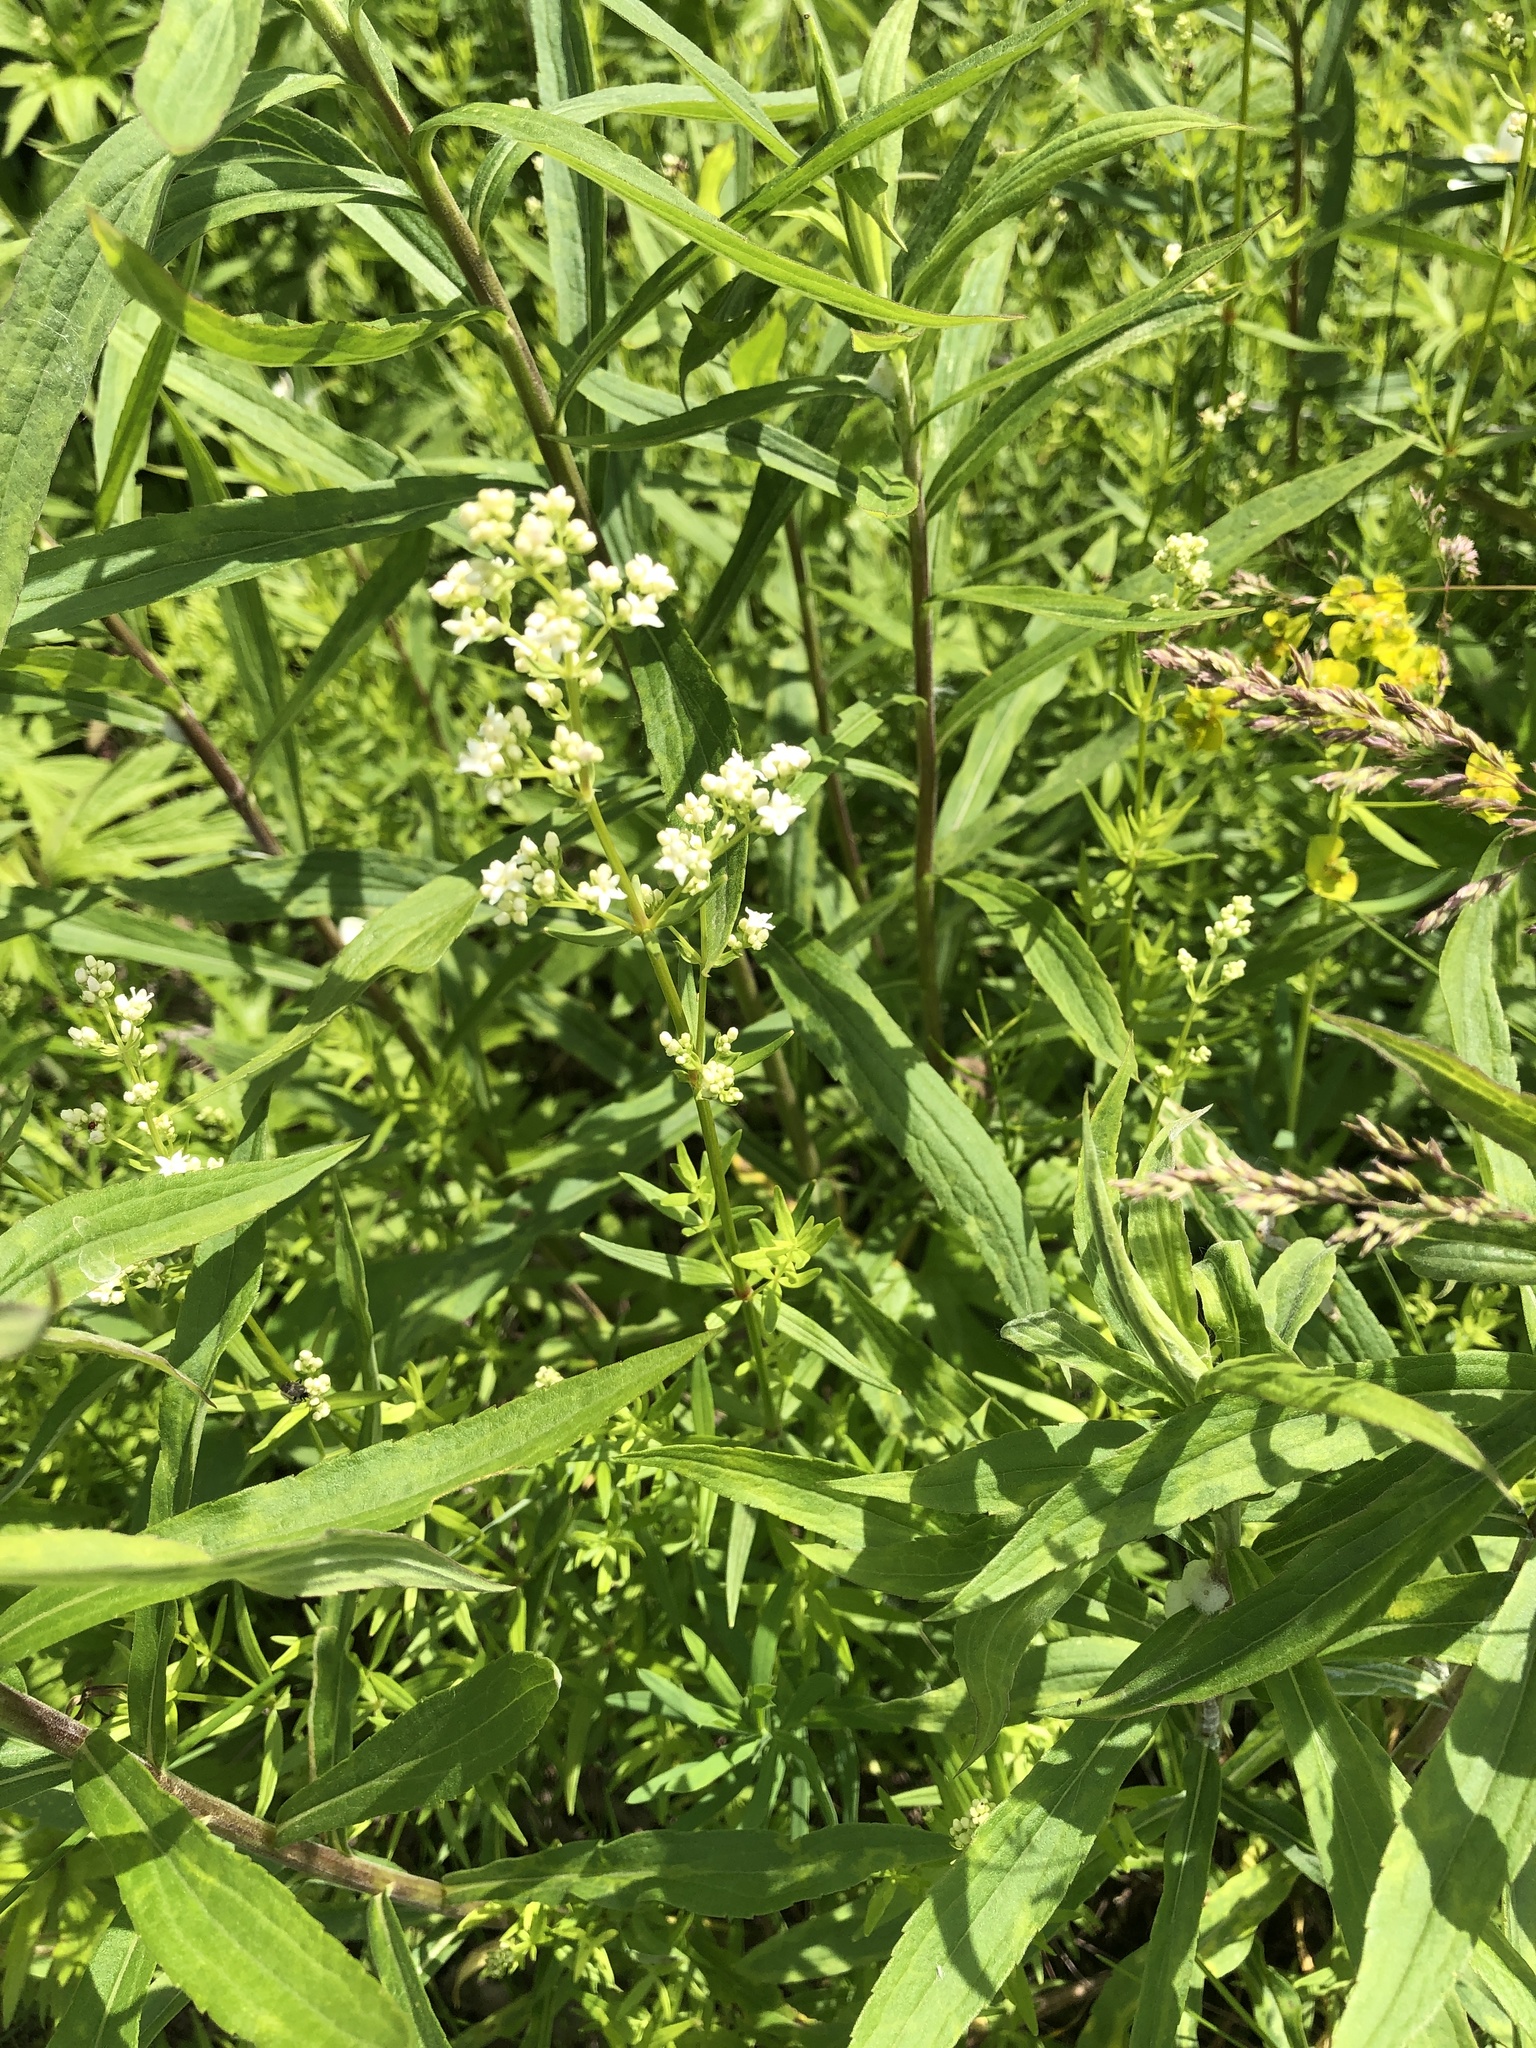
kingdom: Plantae
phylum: Tracheophyta
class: Magnoliopsida
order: Gentianales
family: Rubiaceae
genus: Galium
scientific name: Galium boreale
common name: Northern bedstraw
